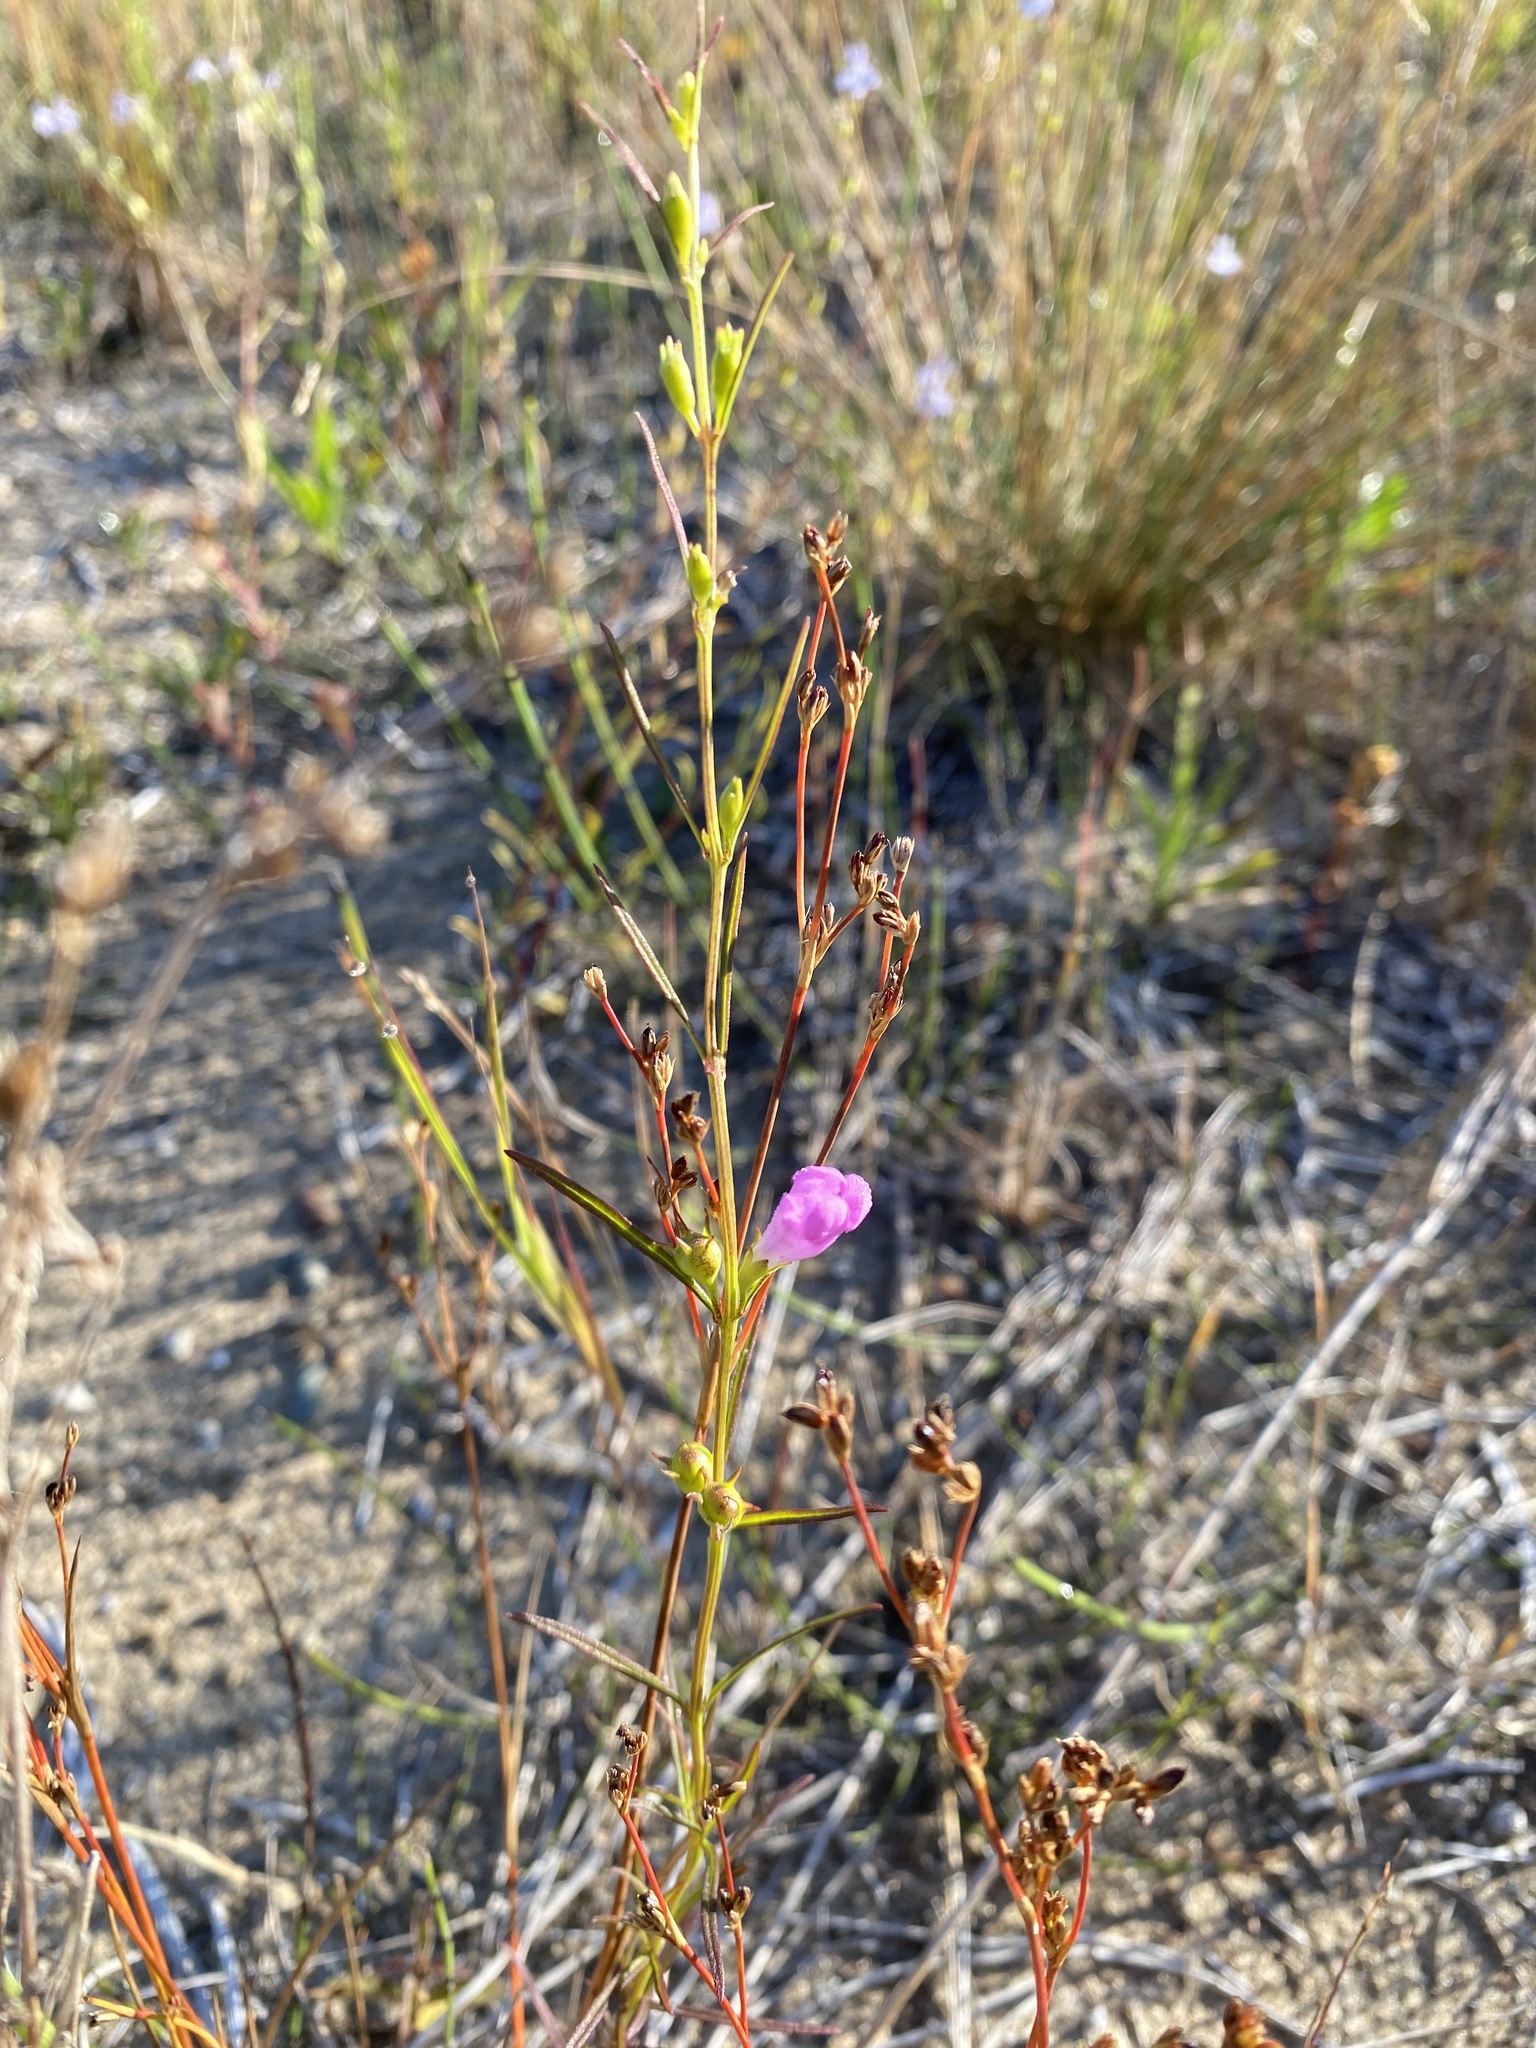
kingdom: Plantae
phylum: Tracheophyta
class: Magnoliopsida
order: Lamiales
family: Orobanchaceae
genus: Agalinis
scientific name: Agalinis purpurea
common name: Purple false foxglove
